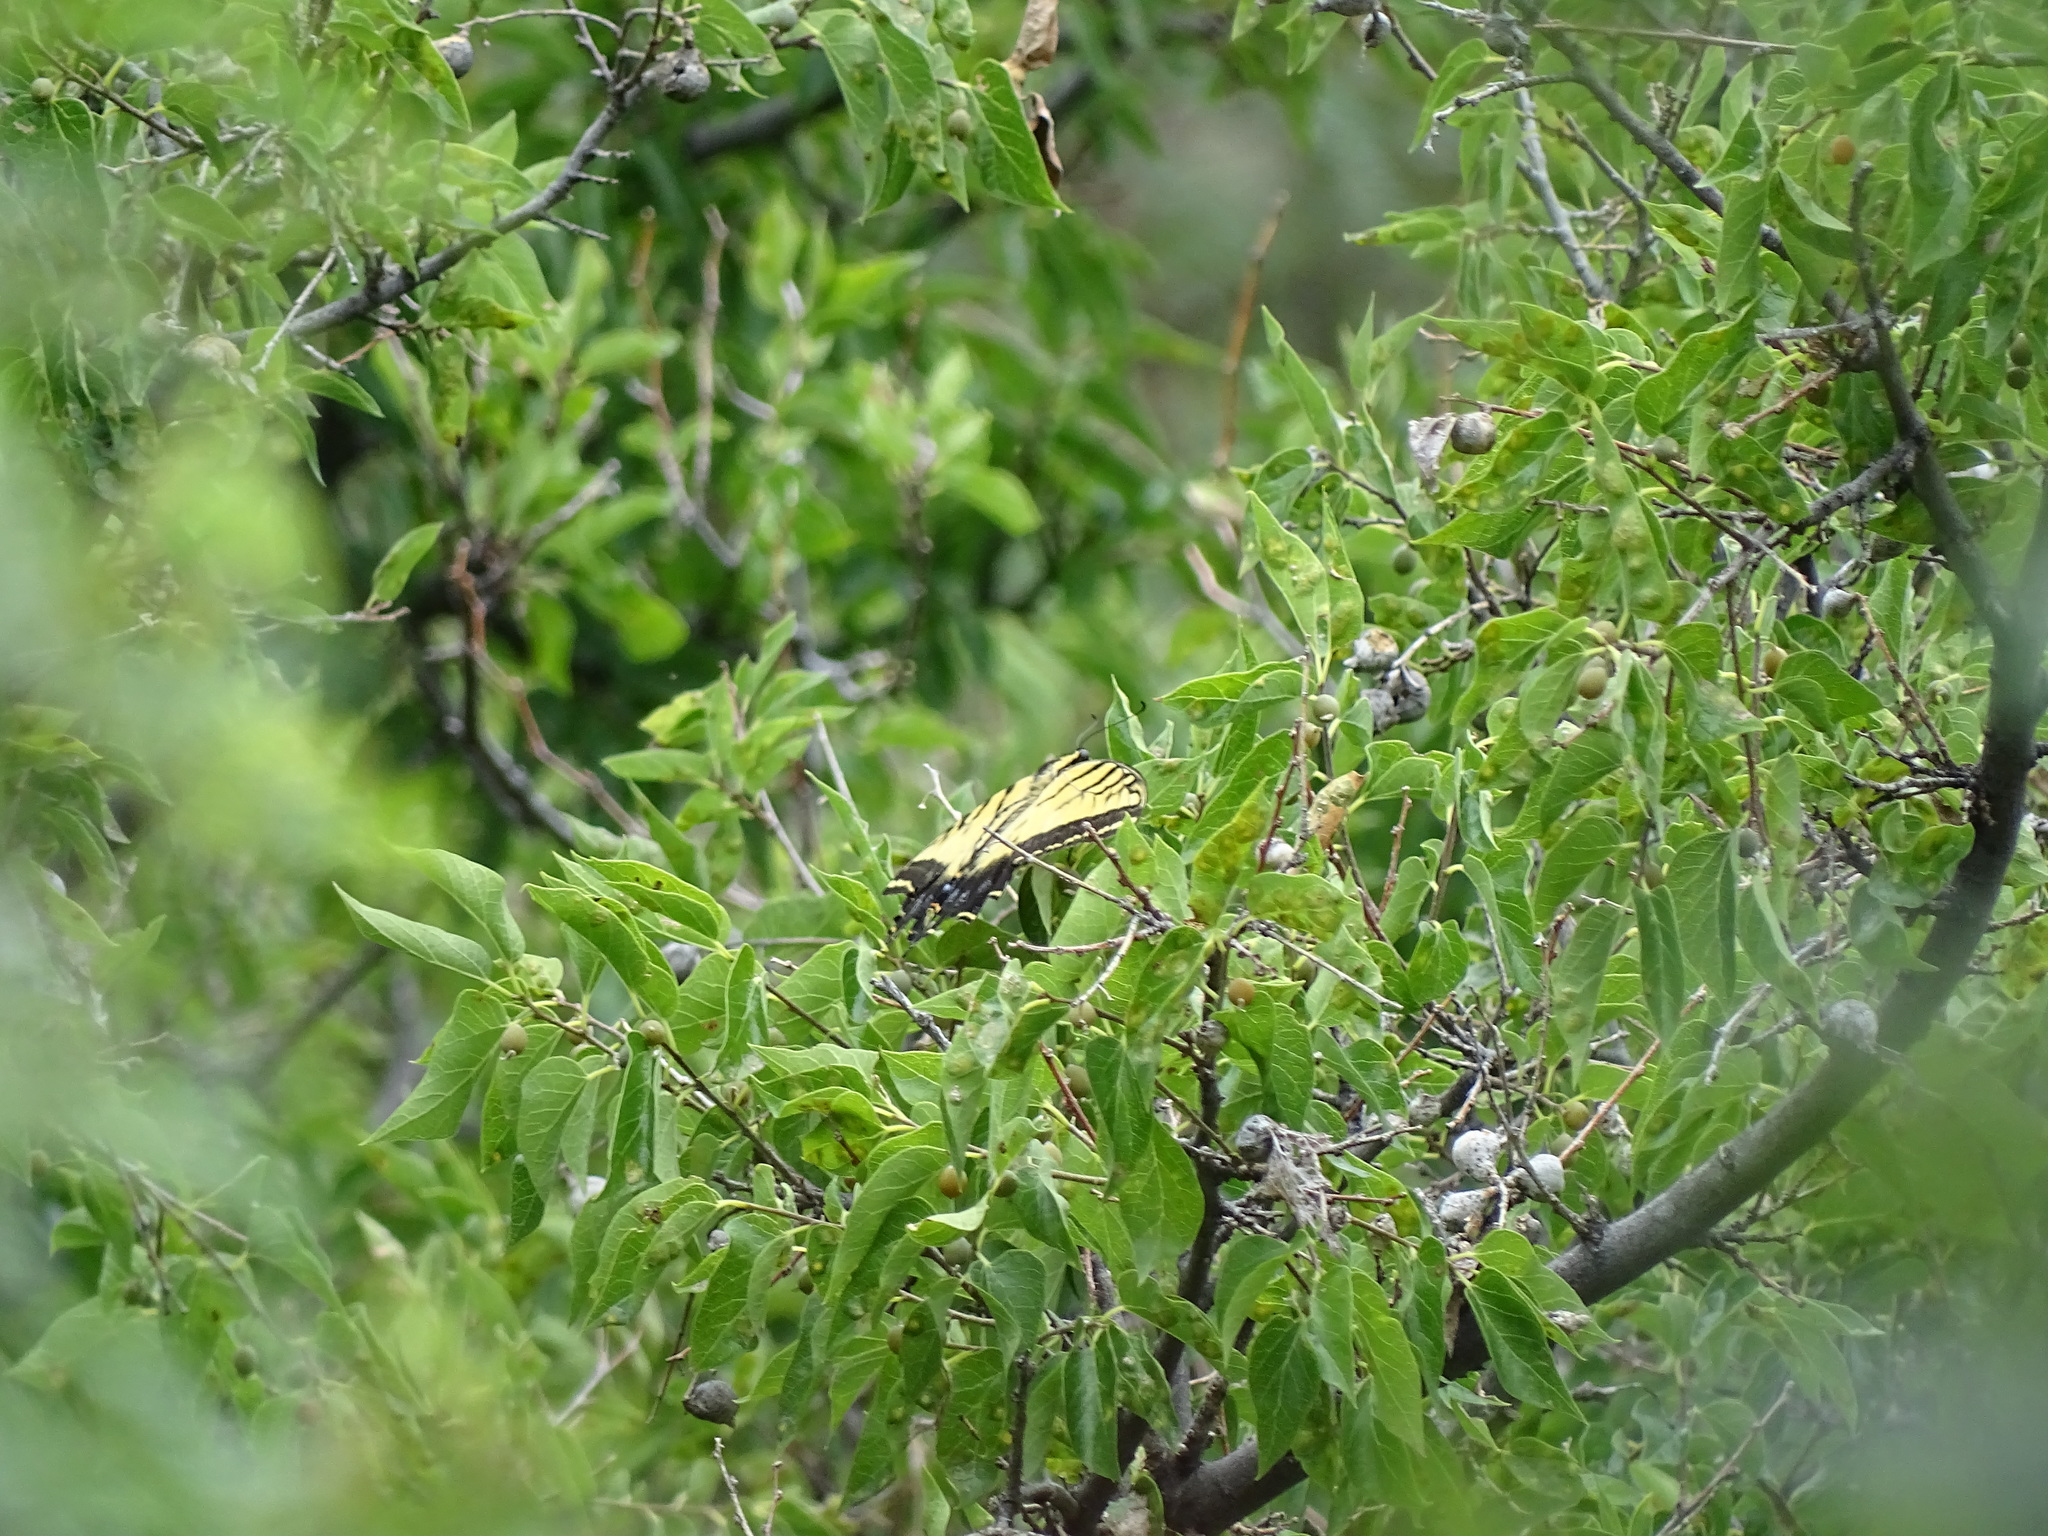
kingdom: Animalia
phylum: Arthropoda
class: Insecta
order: Lepidoptera
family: Papilionidae
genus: Papilio
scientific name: Papilio multicaudata
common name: Two-tailed tiger swallowtail
